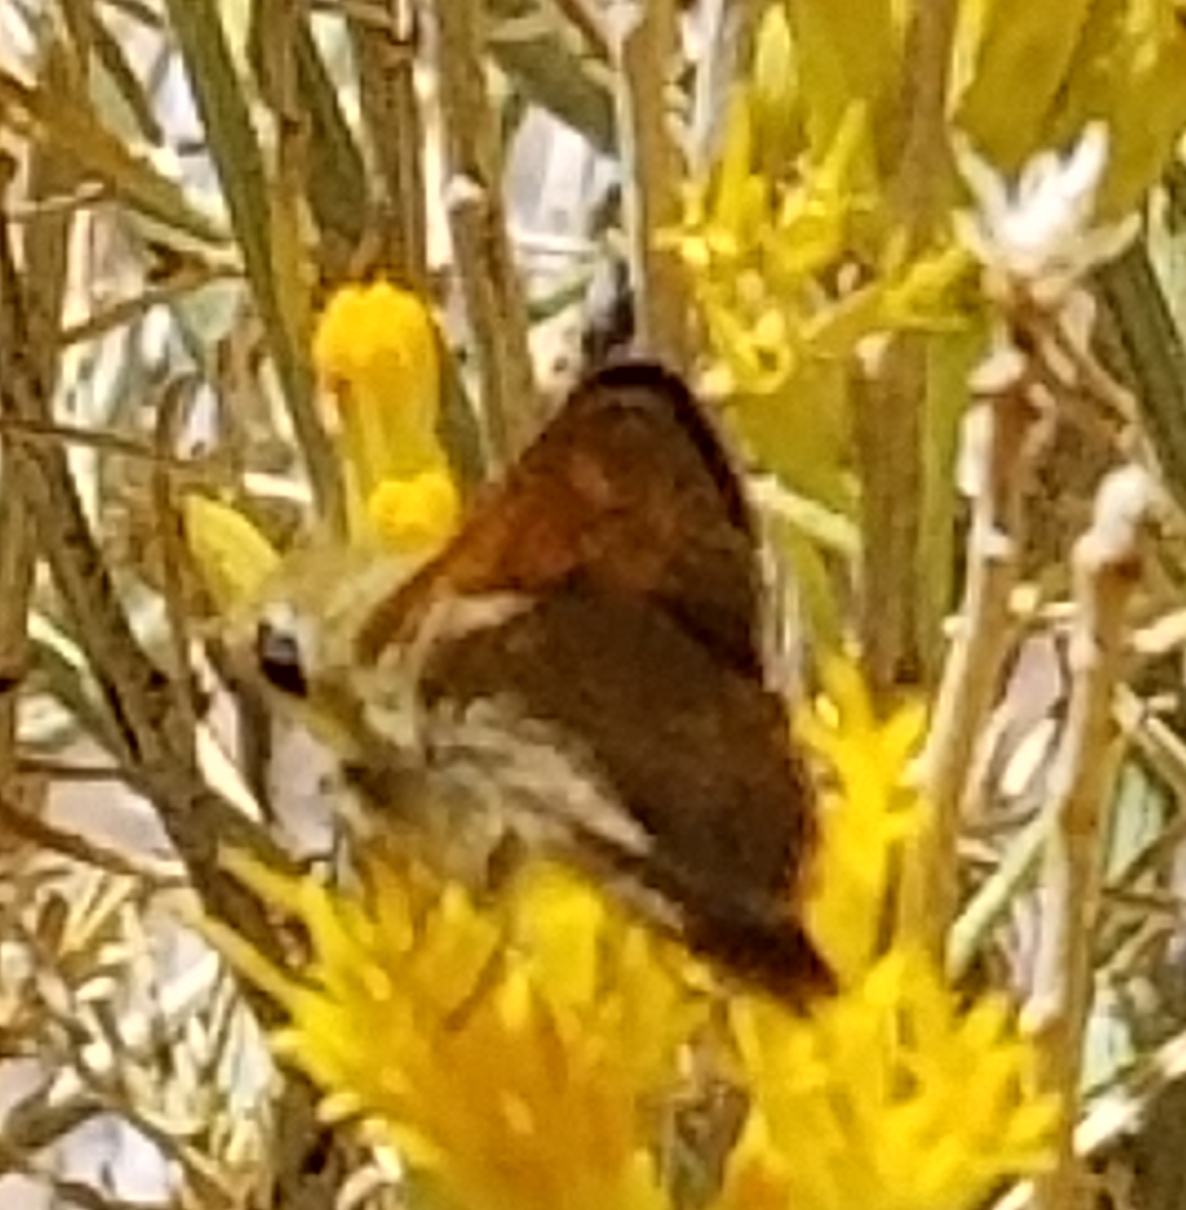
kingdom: Animalia
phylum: Arthropoda
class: Insecta
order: Lepidoptera
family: Hesperiidae
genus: Ochlodes
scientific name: Ochlodes sylvanoides
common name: Woodland skipper
